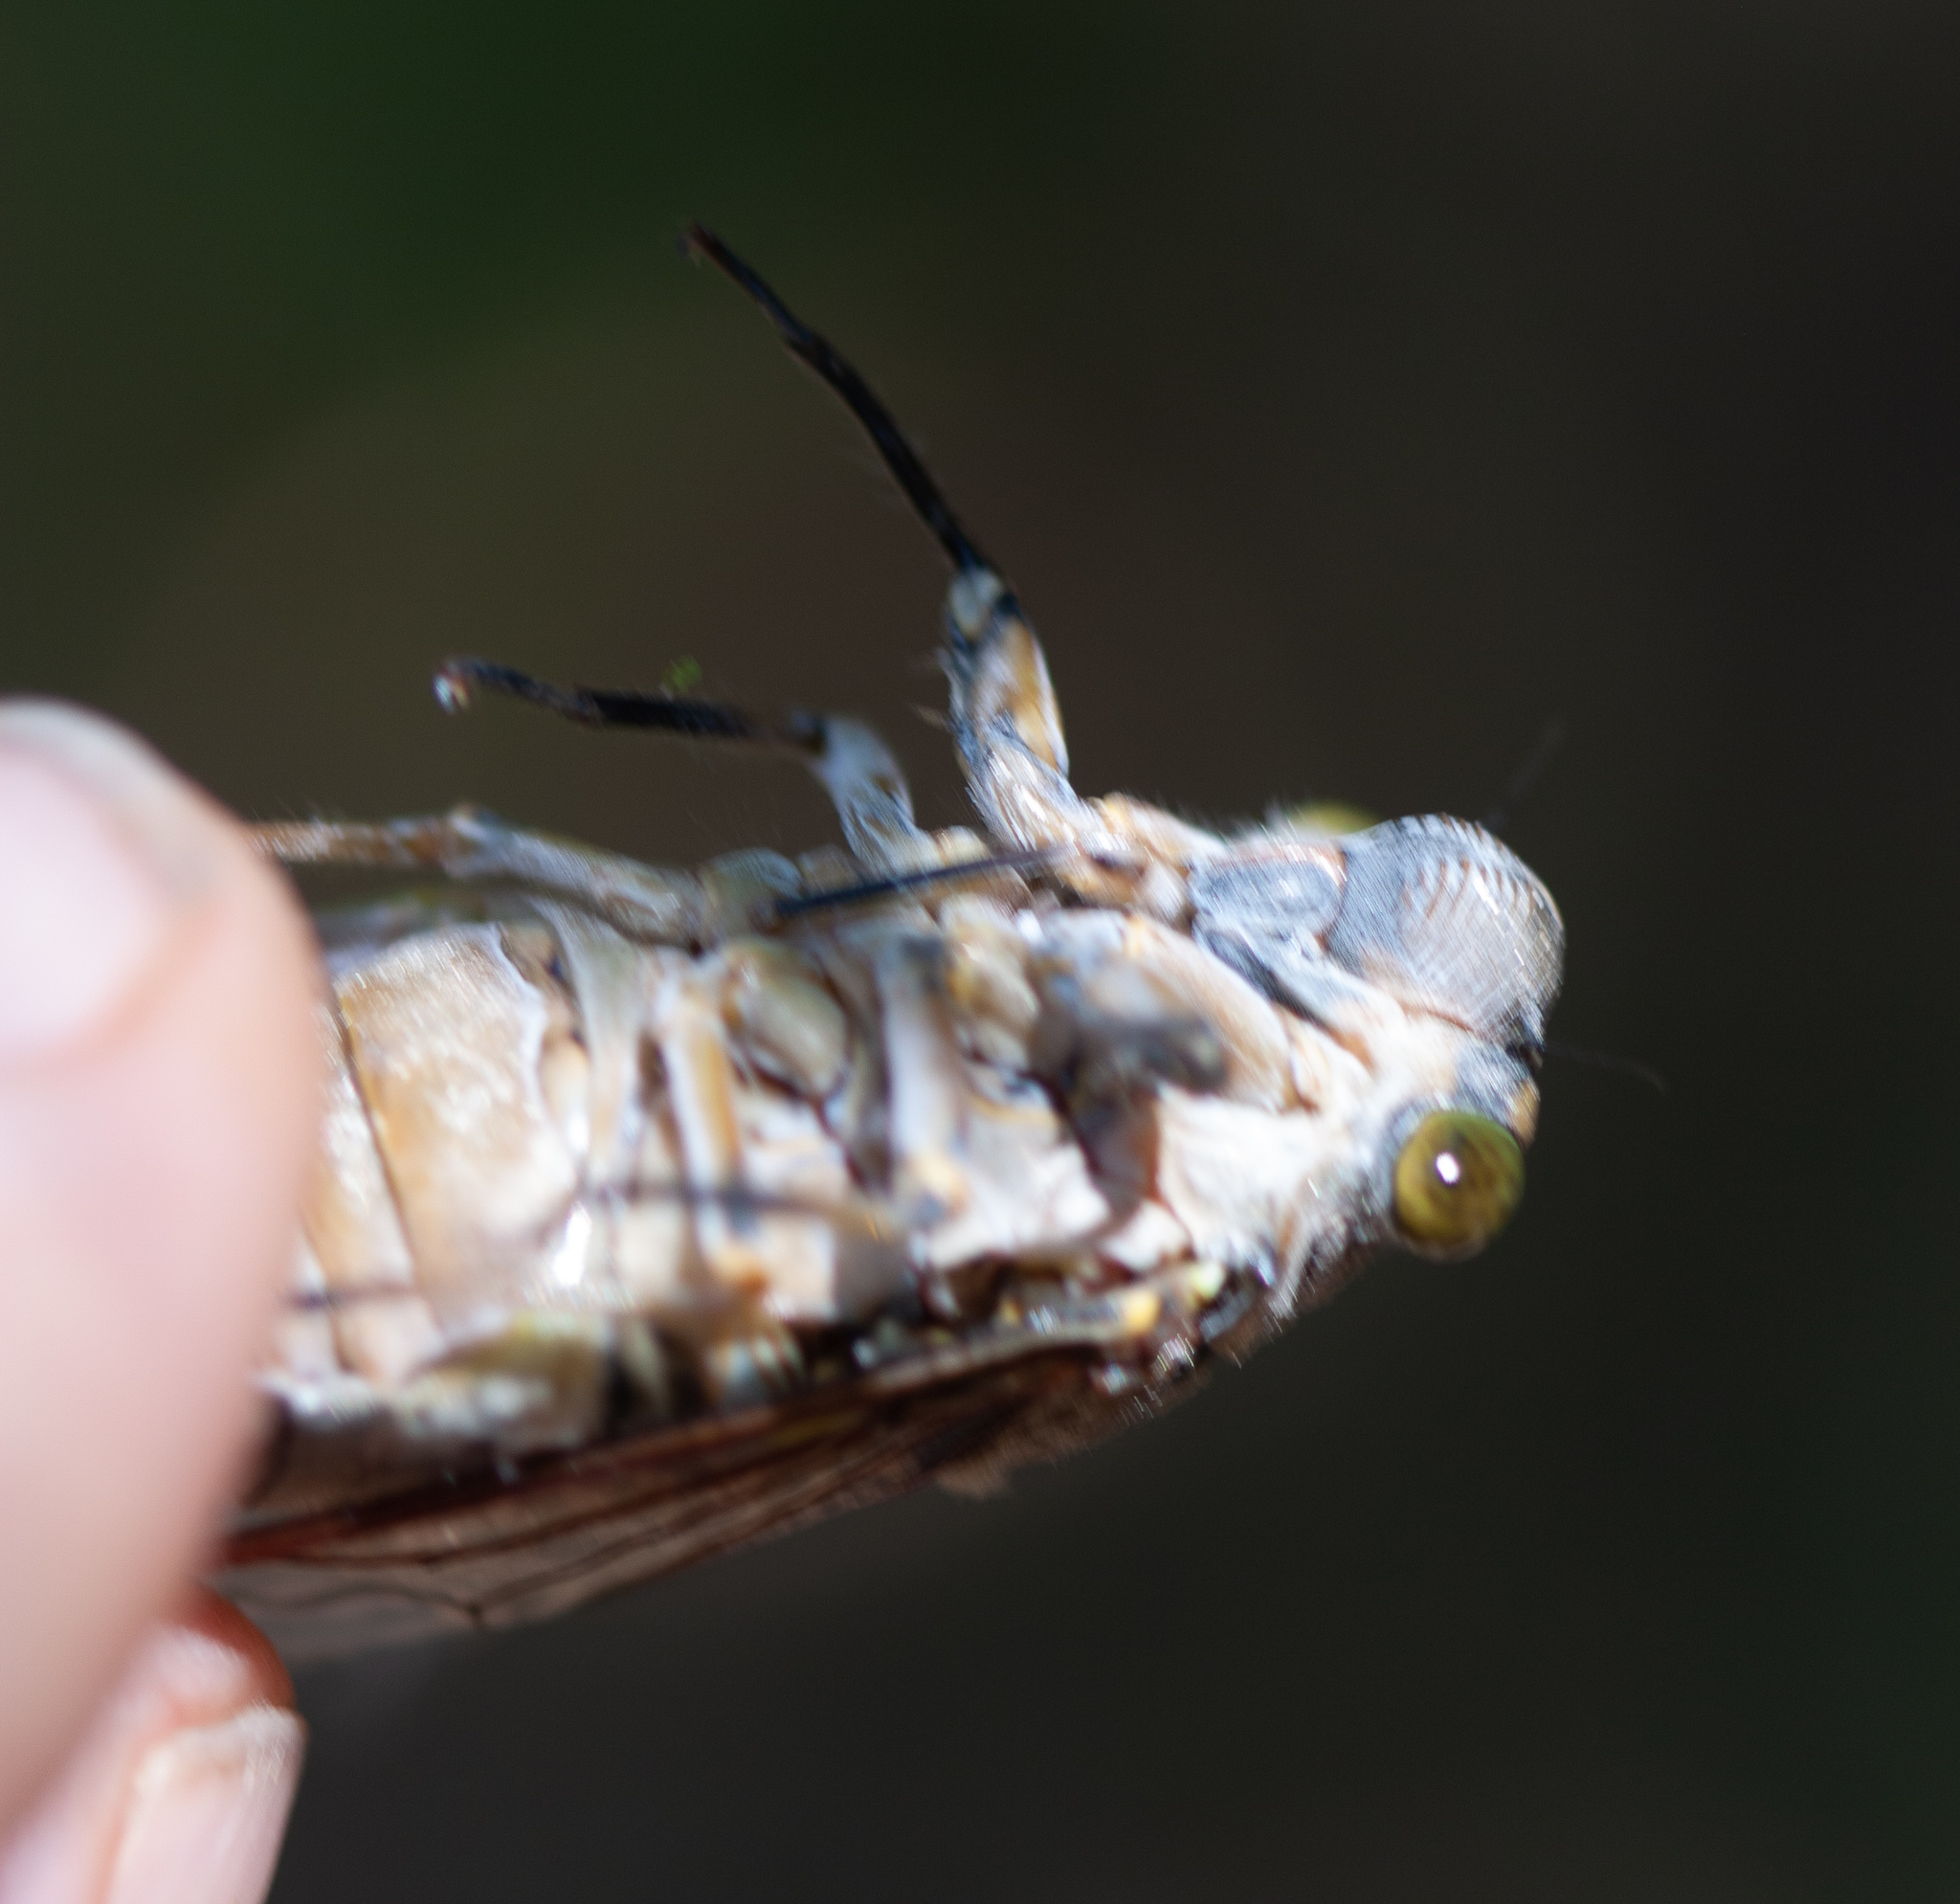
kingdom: Animalia
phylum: Arthropoda
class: Insecta
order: Hemiptera
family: Cicadidae
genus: Quesada
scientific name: Quesada gigas
